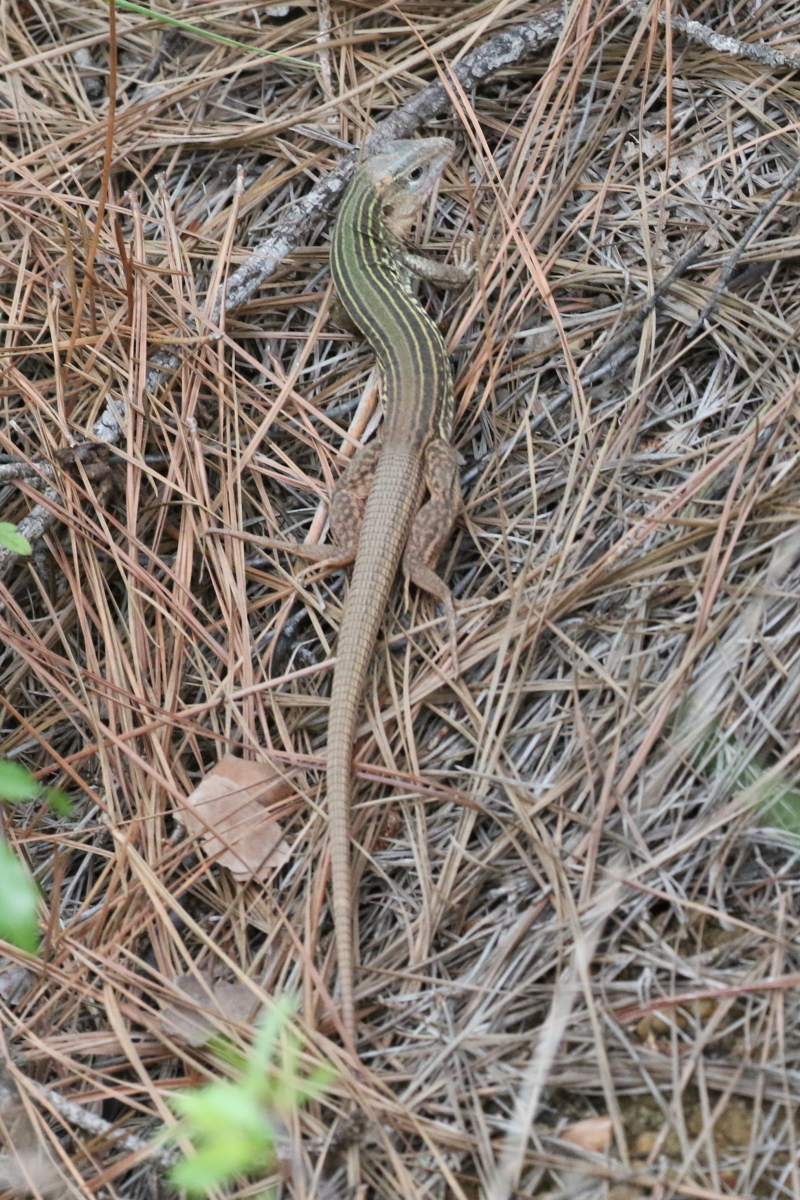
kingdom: Animalia
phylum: Chordata
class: Squamata
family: Teiidae
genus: Aspidoscelis
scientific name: Aspidoscelis gularis
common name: Eastern spotted whiptail
